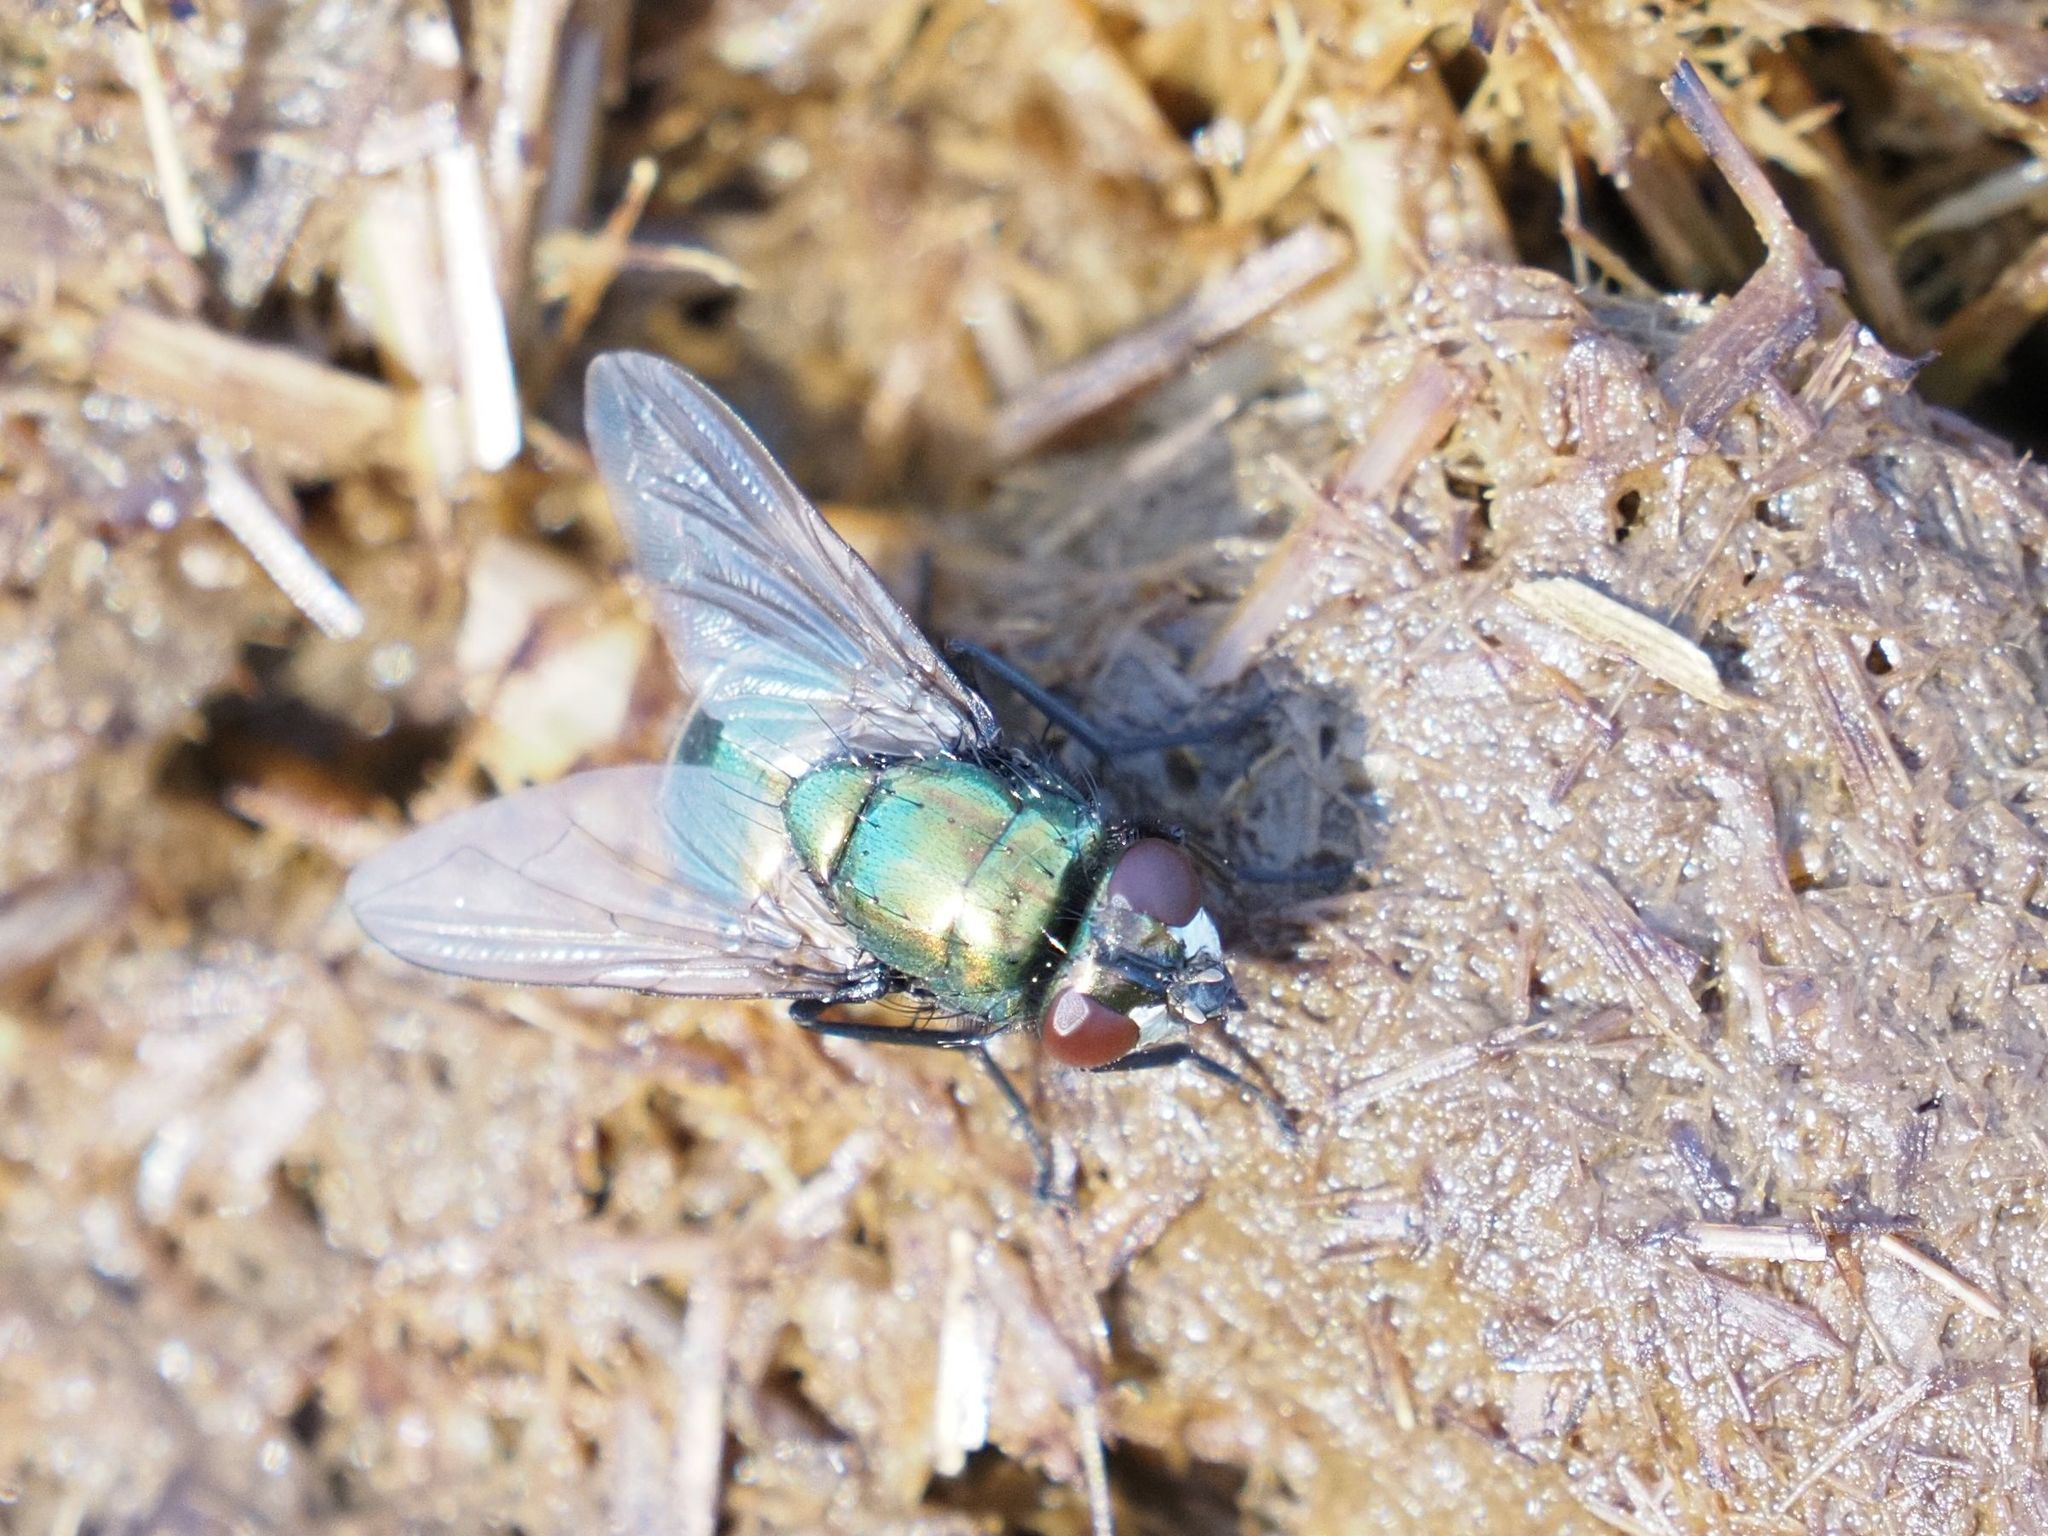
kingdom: Animalia
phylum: Arthropoda
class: Insecta
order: Diptera
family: Muscidae
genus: Neomyia
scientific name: Neomyia cornicina
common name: House fly
